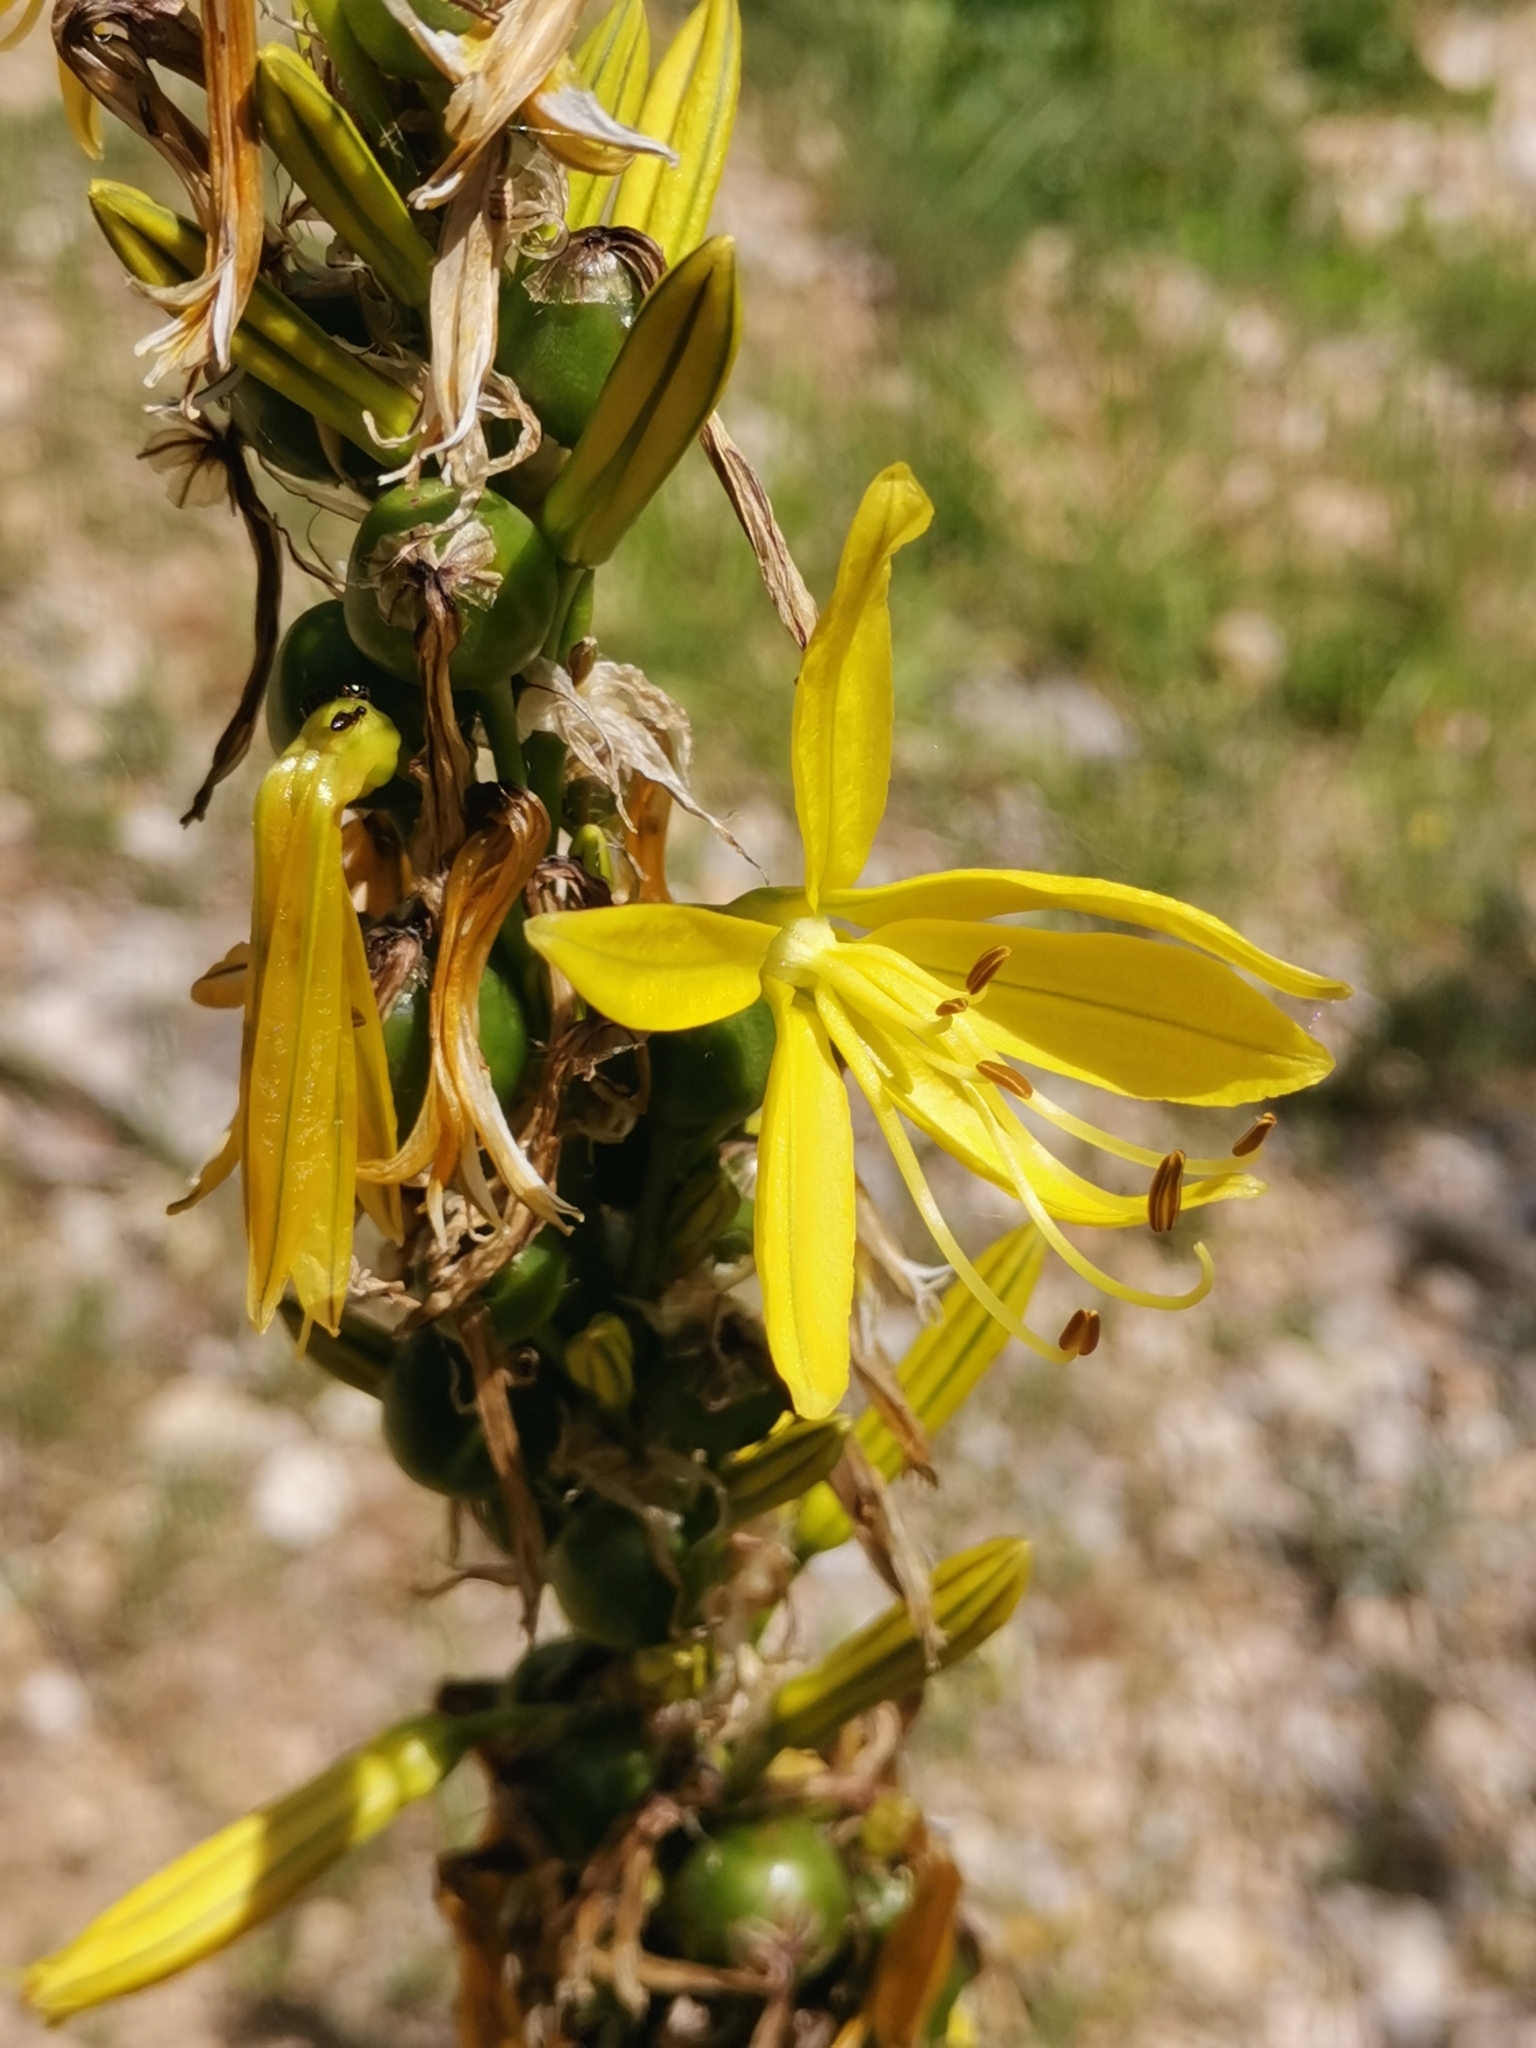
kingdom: Plantae
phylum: Tracheophyta
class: Liliopsida
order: Asparagales
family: Asphodelaceae
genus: Asphodeline
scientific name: Asphodeline lutea
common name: Yellow asphodel
